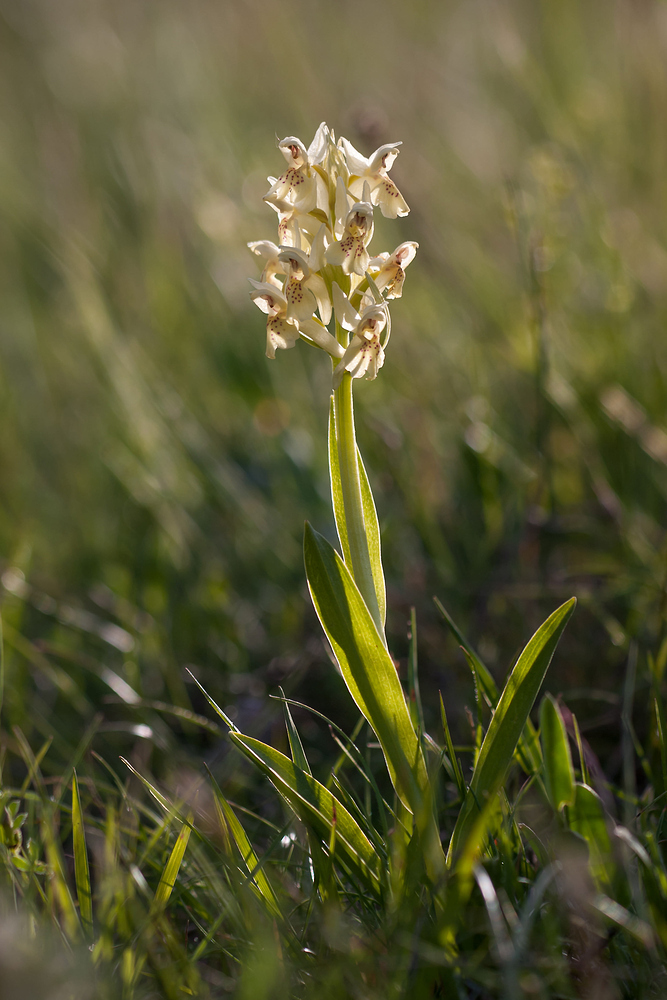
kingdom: Plantae
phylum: Tracheophyta
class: Liliopsida
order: Asparagales
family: Orchidaceae
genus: Dactylorhiza
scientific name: Dactylorhiza sambucina
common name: Elder-flowered orchid
